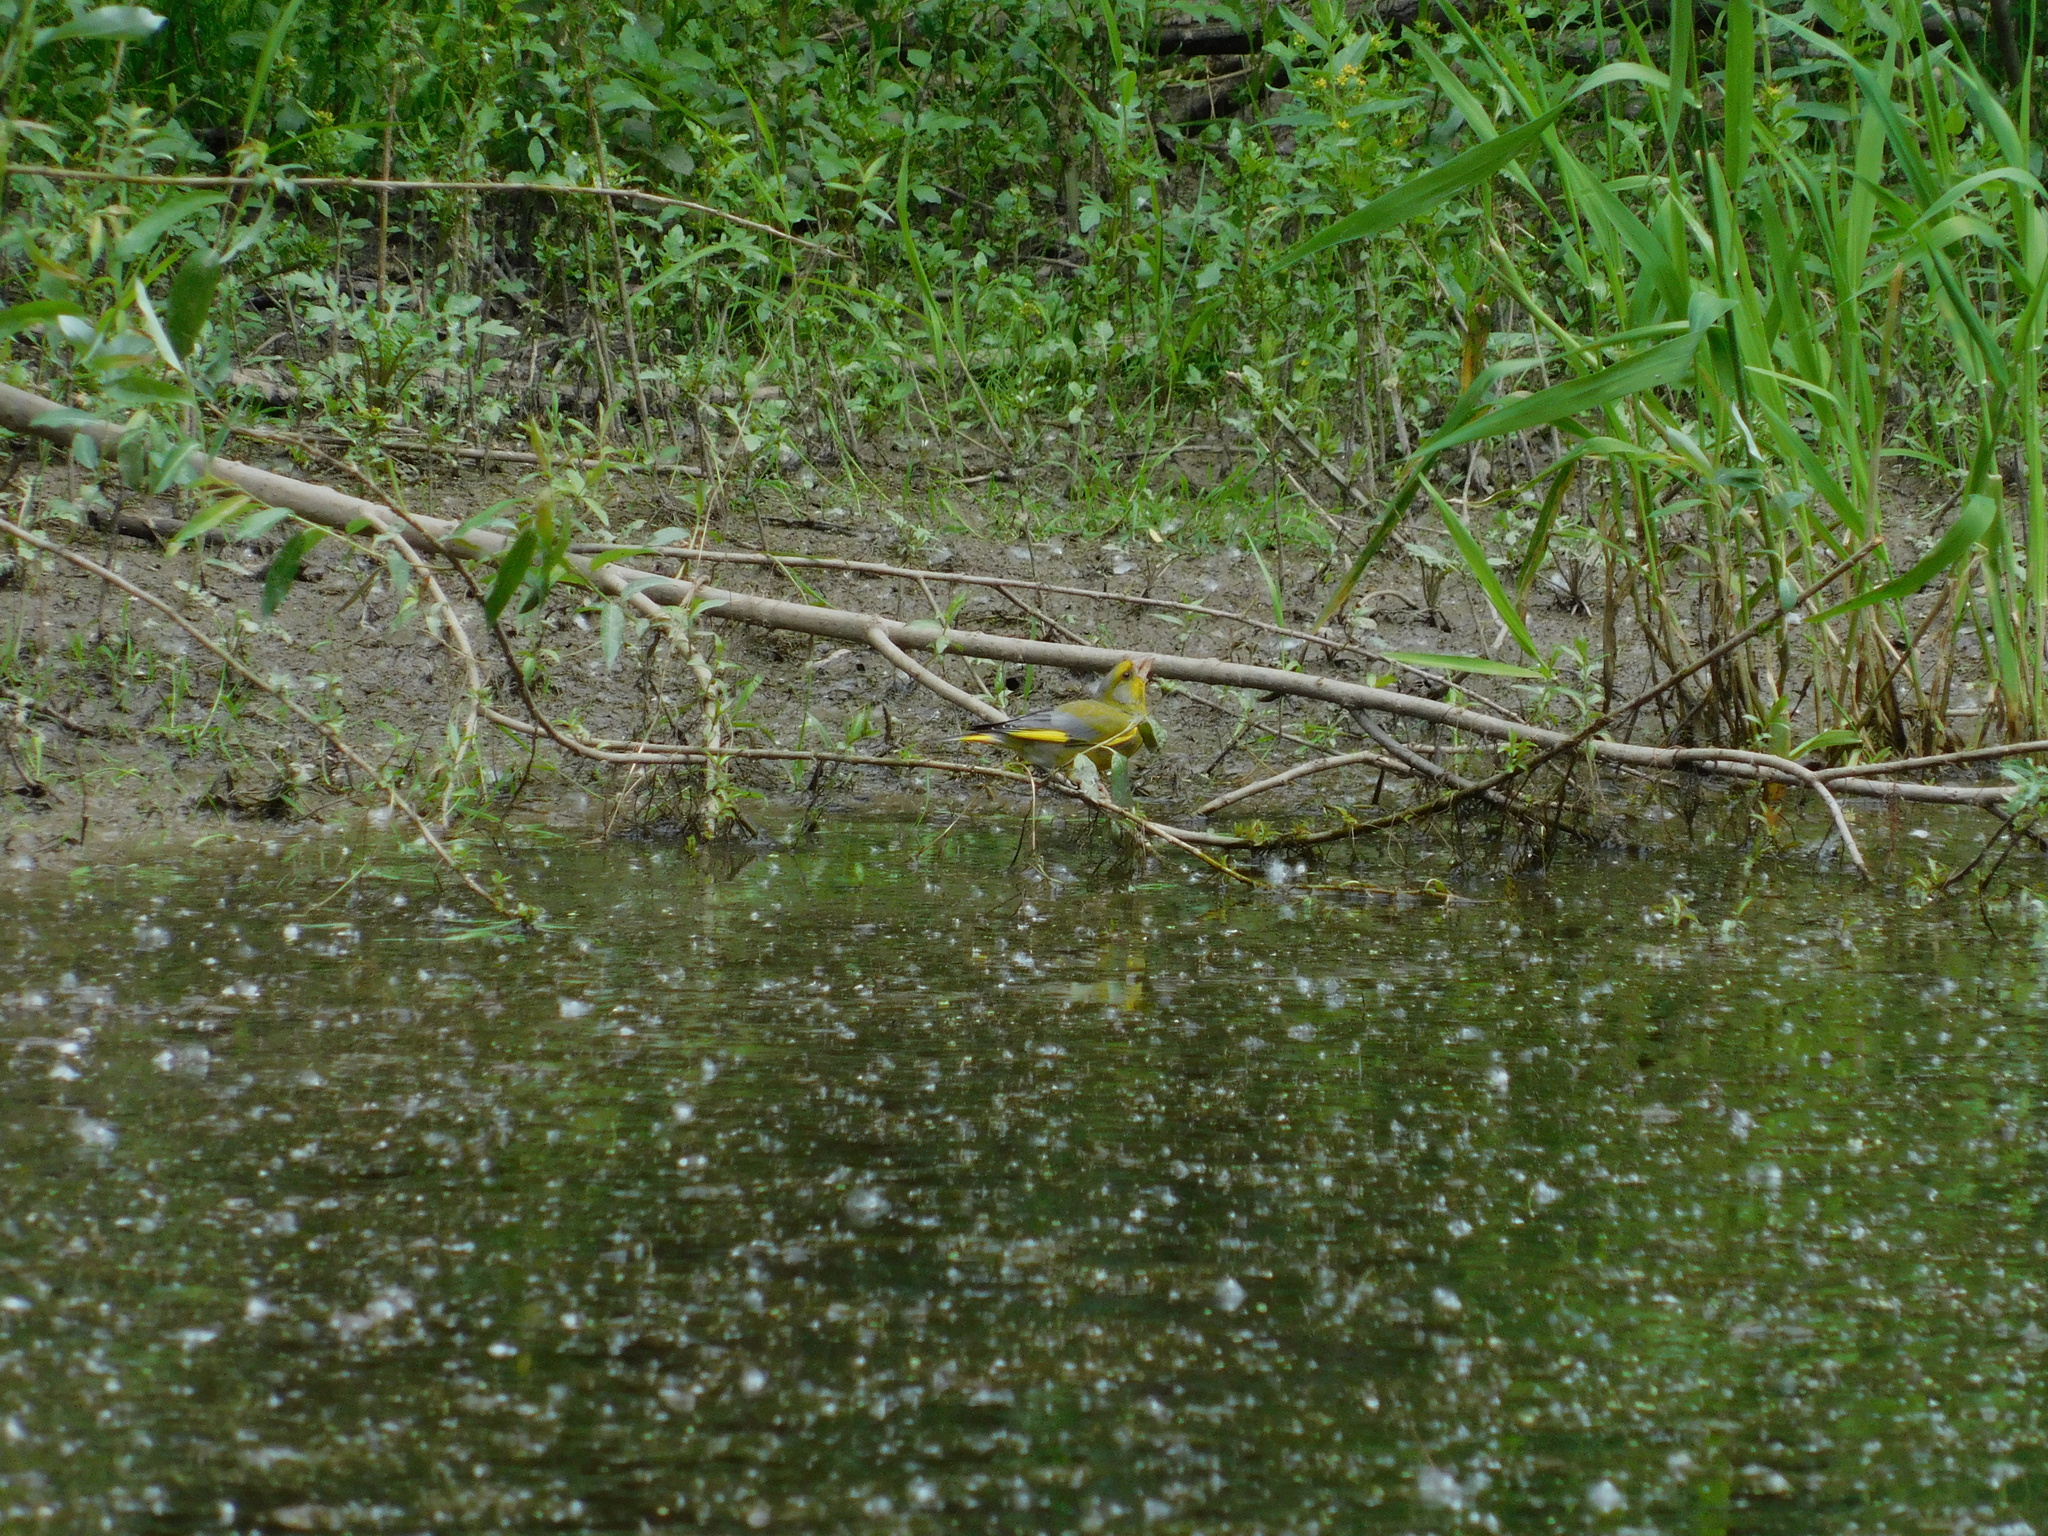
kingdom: Plantae
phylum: Tracheophyta
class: Liliopsida
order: Poales
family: Poaceae
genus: Chloris
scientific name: Chloris chloris
